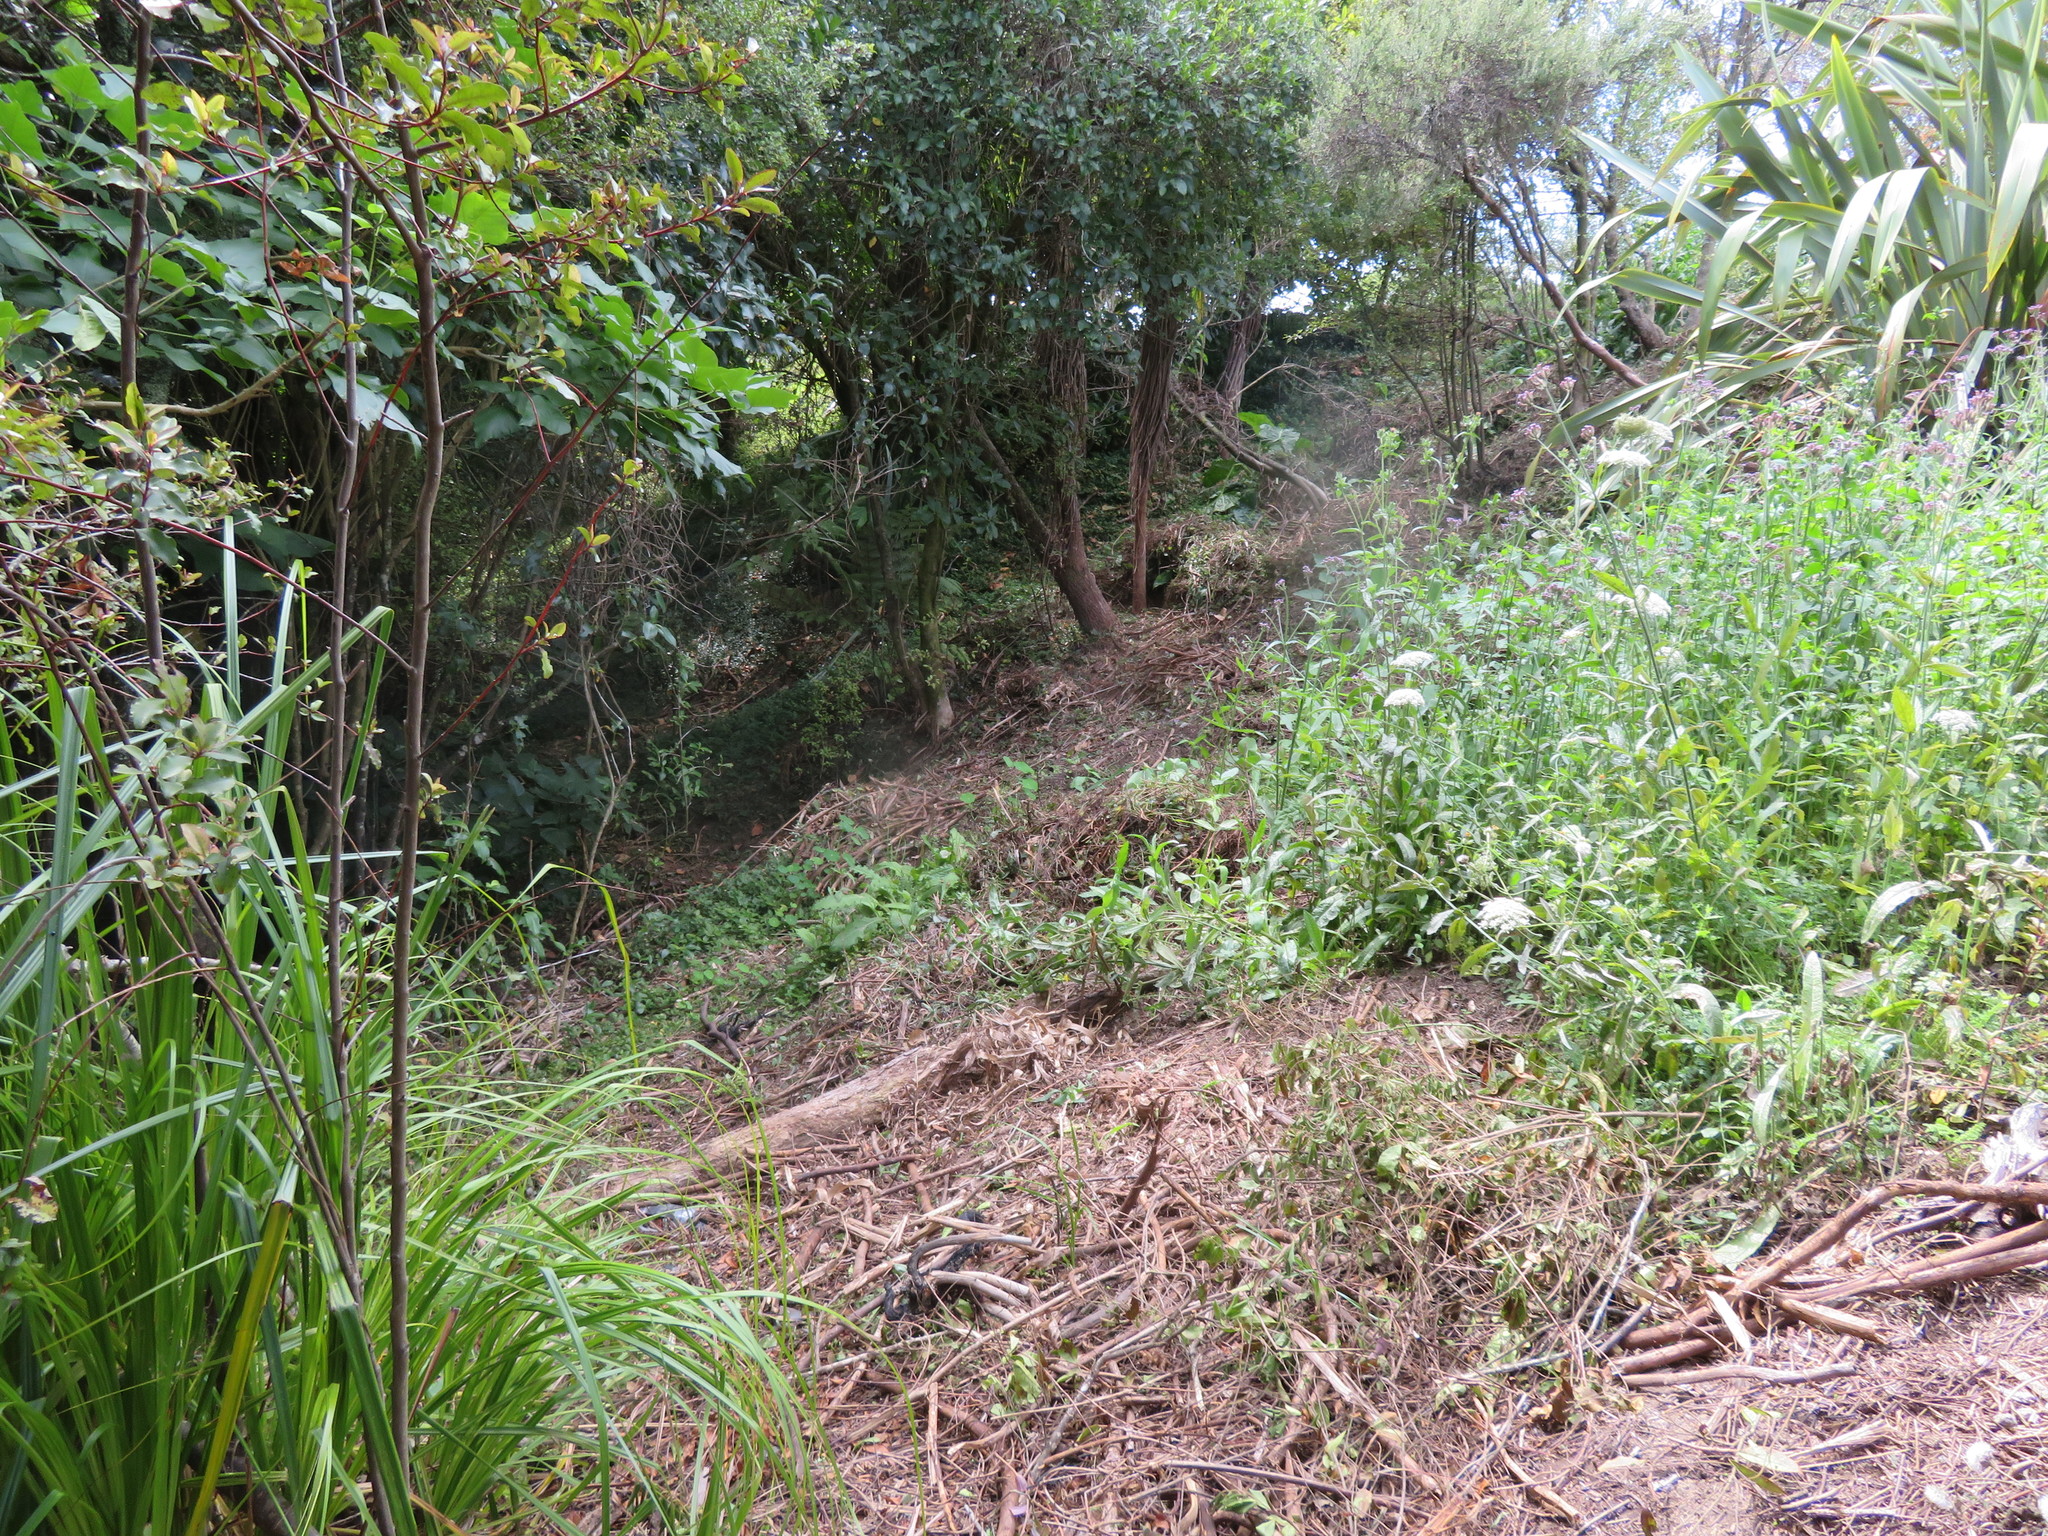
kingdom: Plantae
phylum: Tracheophyta
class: Magnoliopsida
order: Brassicales
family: Tropaeolaceae
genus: Tropaeolum
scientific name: Tropaeolum majus
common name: Nasturtium
